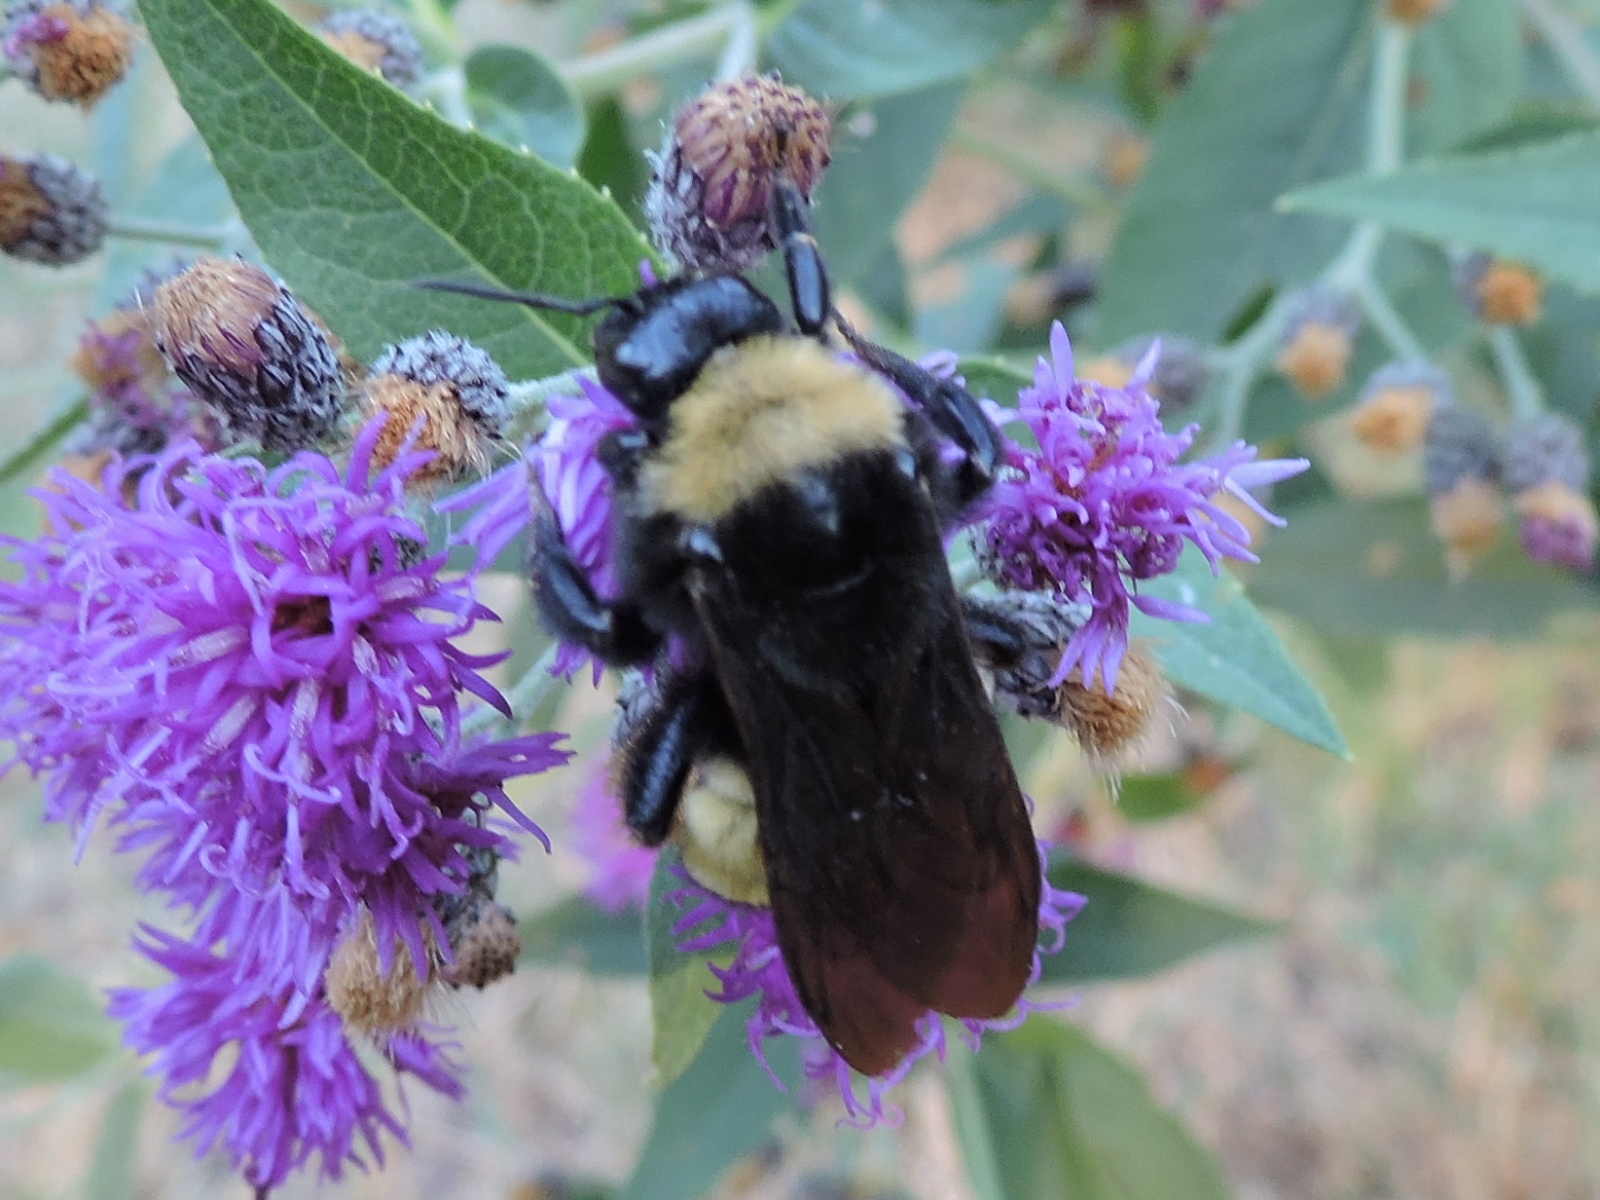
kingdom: Animalia
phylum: Arthropoda
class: Insecta
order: Hymenoptera
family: Apidae
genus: Bombus
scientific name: Bombus pensylvanicus
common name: Bumble bee
